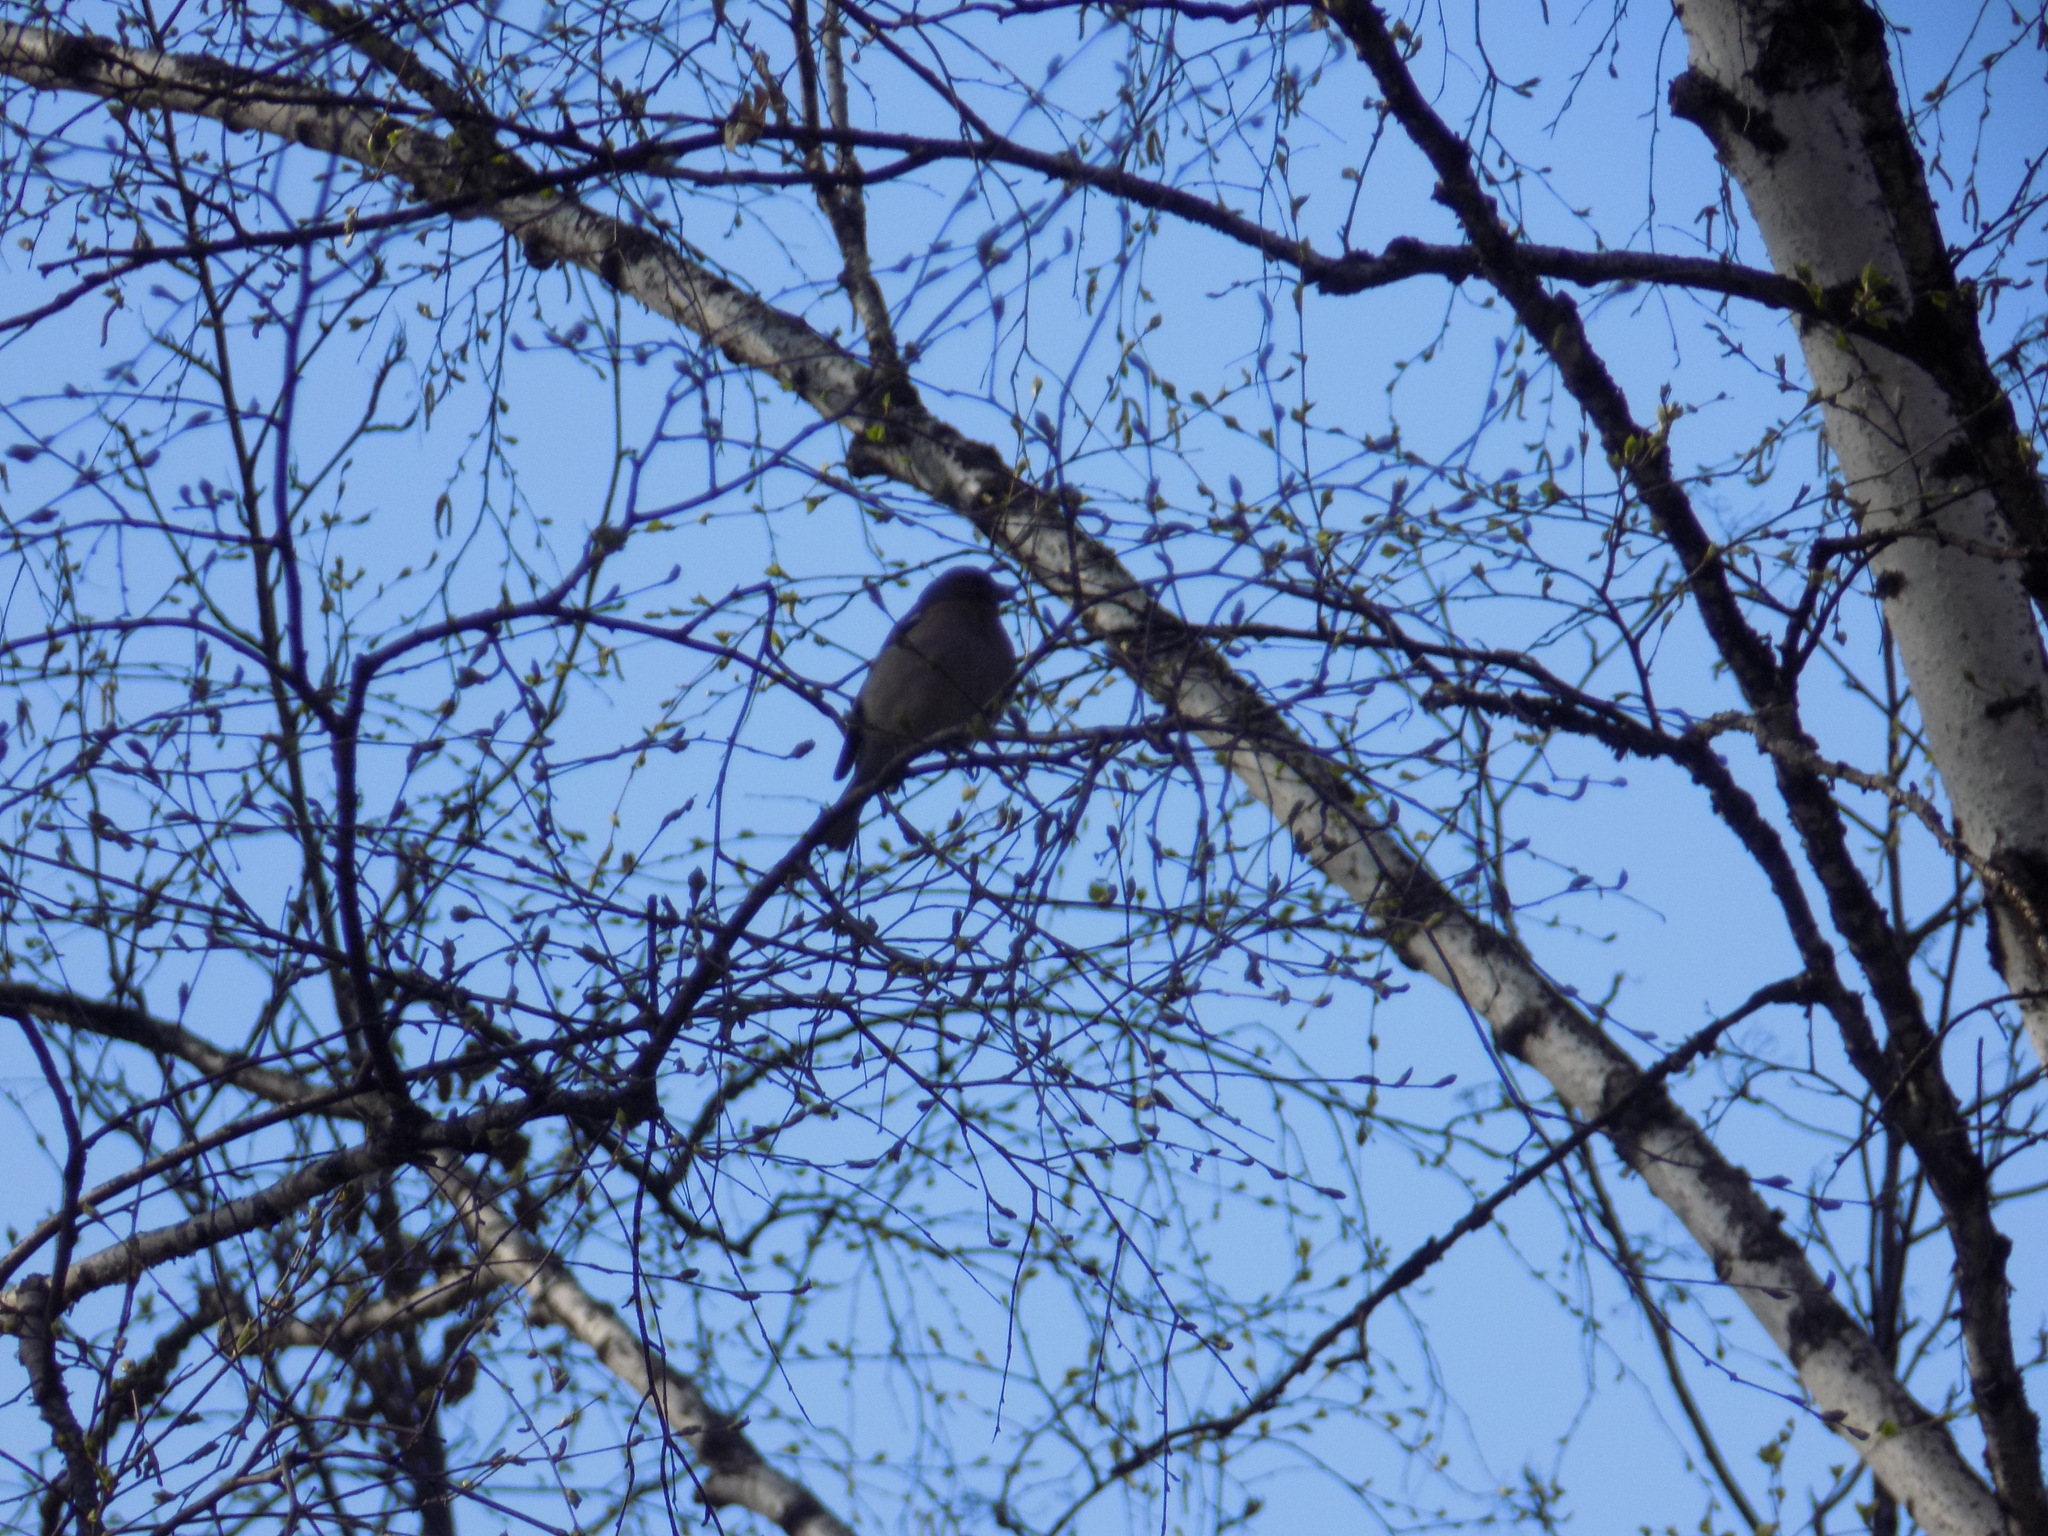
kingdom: Animalia
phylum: Chordata
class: Aves
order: Passeriformes
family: Fringillidae
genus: Fringilla
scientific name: Fringilla coelebs
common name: Common chaffinch
